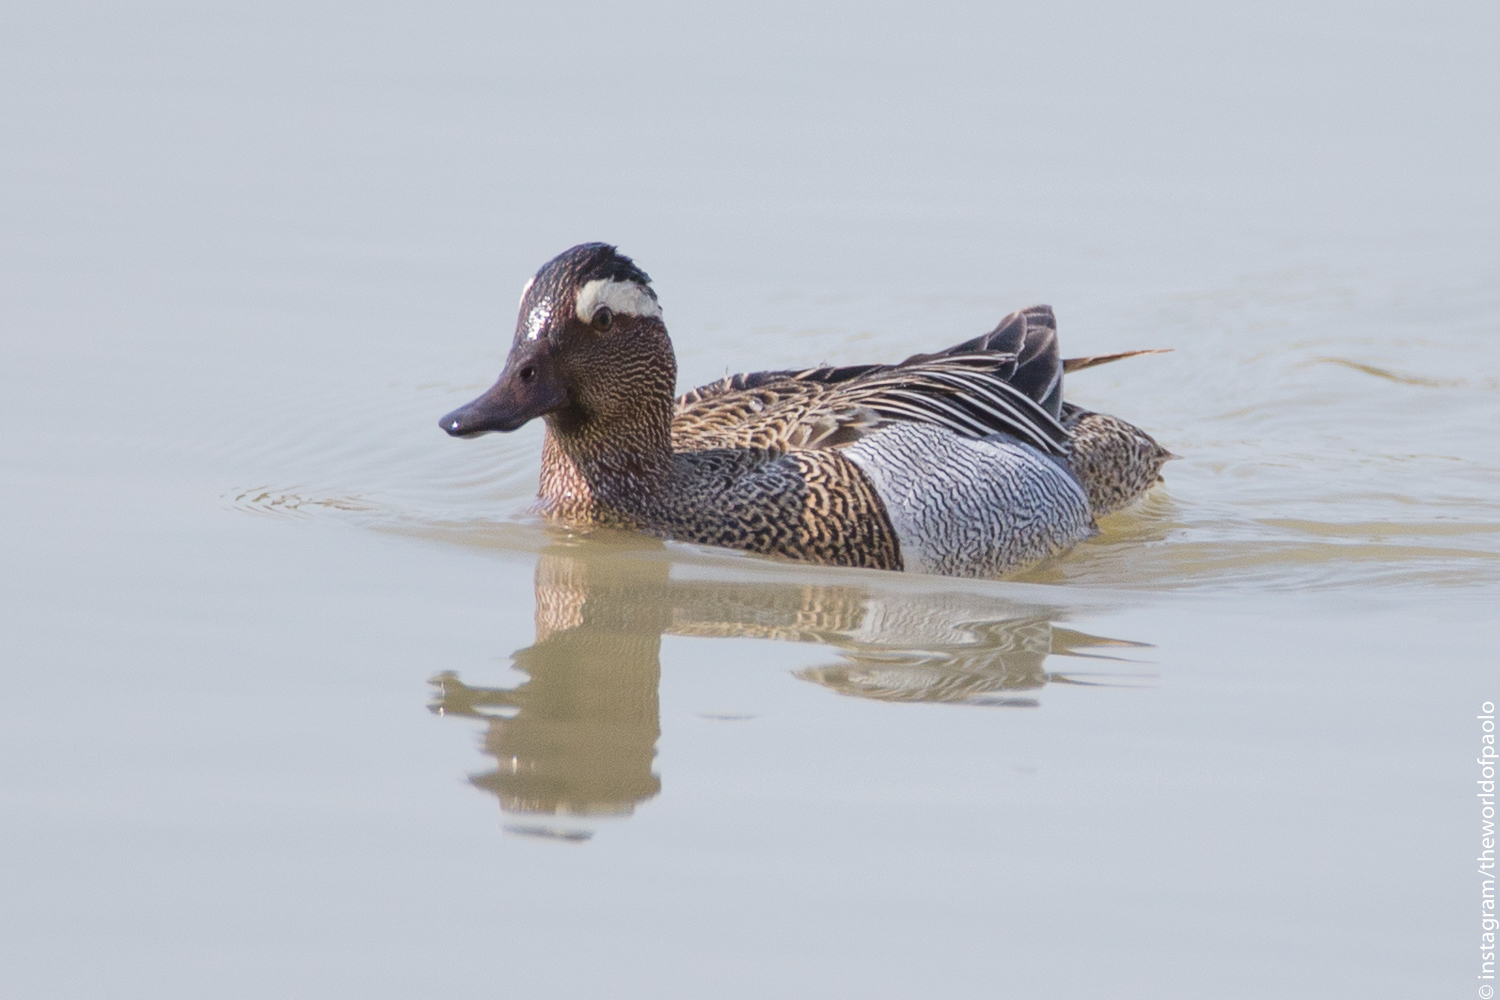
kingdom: Animalia
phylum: Chordata
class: Aves
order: Anseriformes
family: Anatidae
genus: Spatula
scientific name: Spatula querquedula
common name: Garganey
